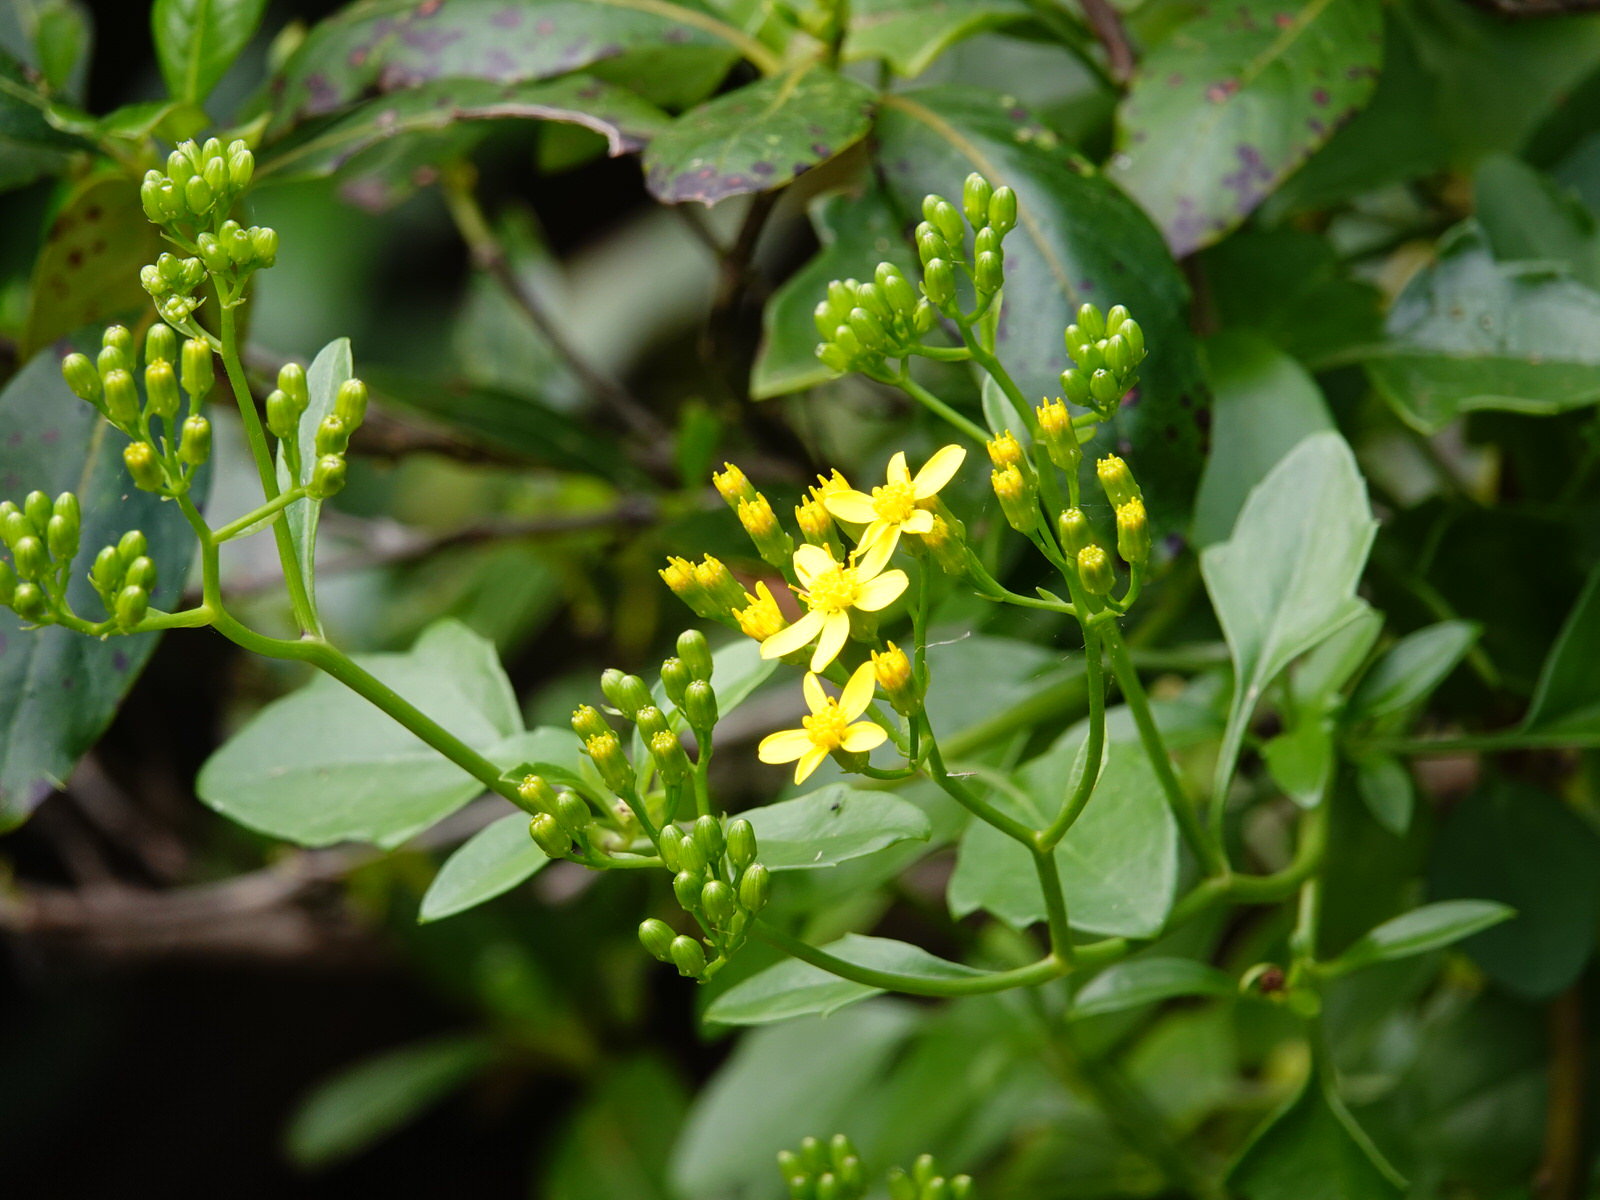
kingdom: Plantae
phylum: Tracheophyta
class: Magnoliopsida
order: Asterales
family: Asteraceae
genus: Senecio
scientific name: Senecio angulatus
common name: Climbing groundsel
